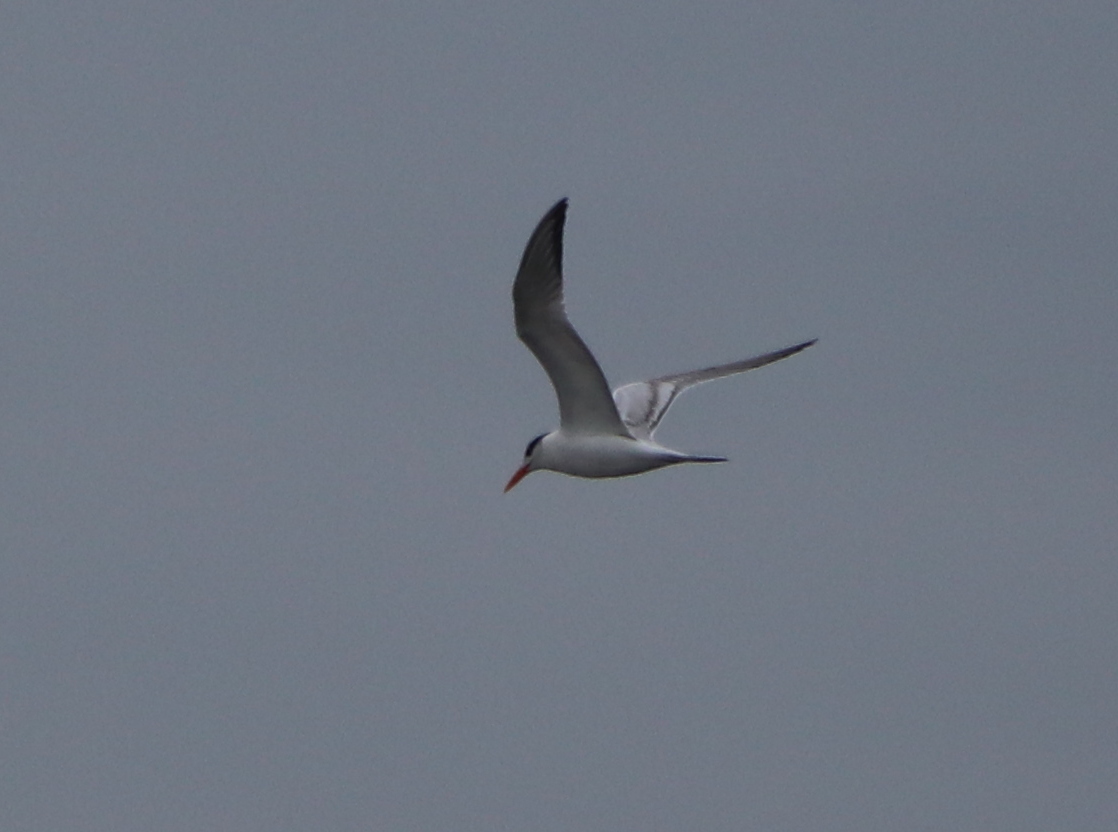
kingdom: Animalia
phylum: Chordata
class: Aves
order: Charadriiformes
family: Laridae
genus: Thalasseus
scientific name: Thalasseus maximus
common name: Royal tern
